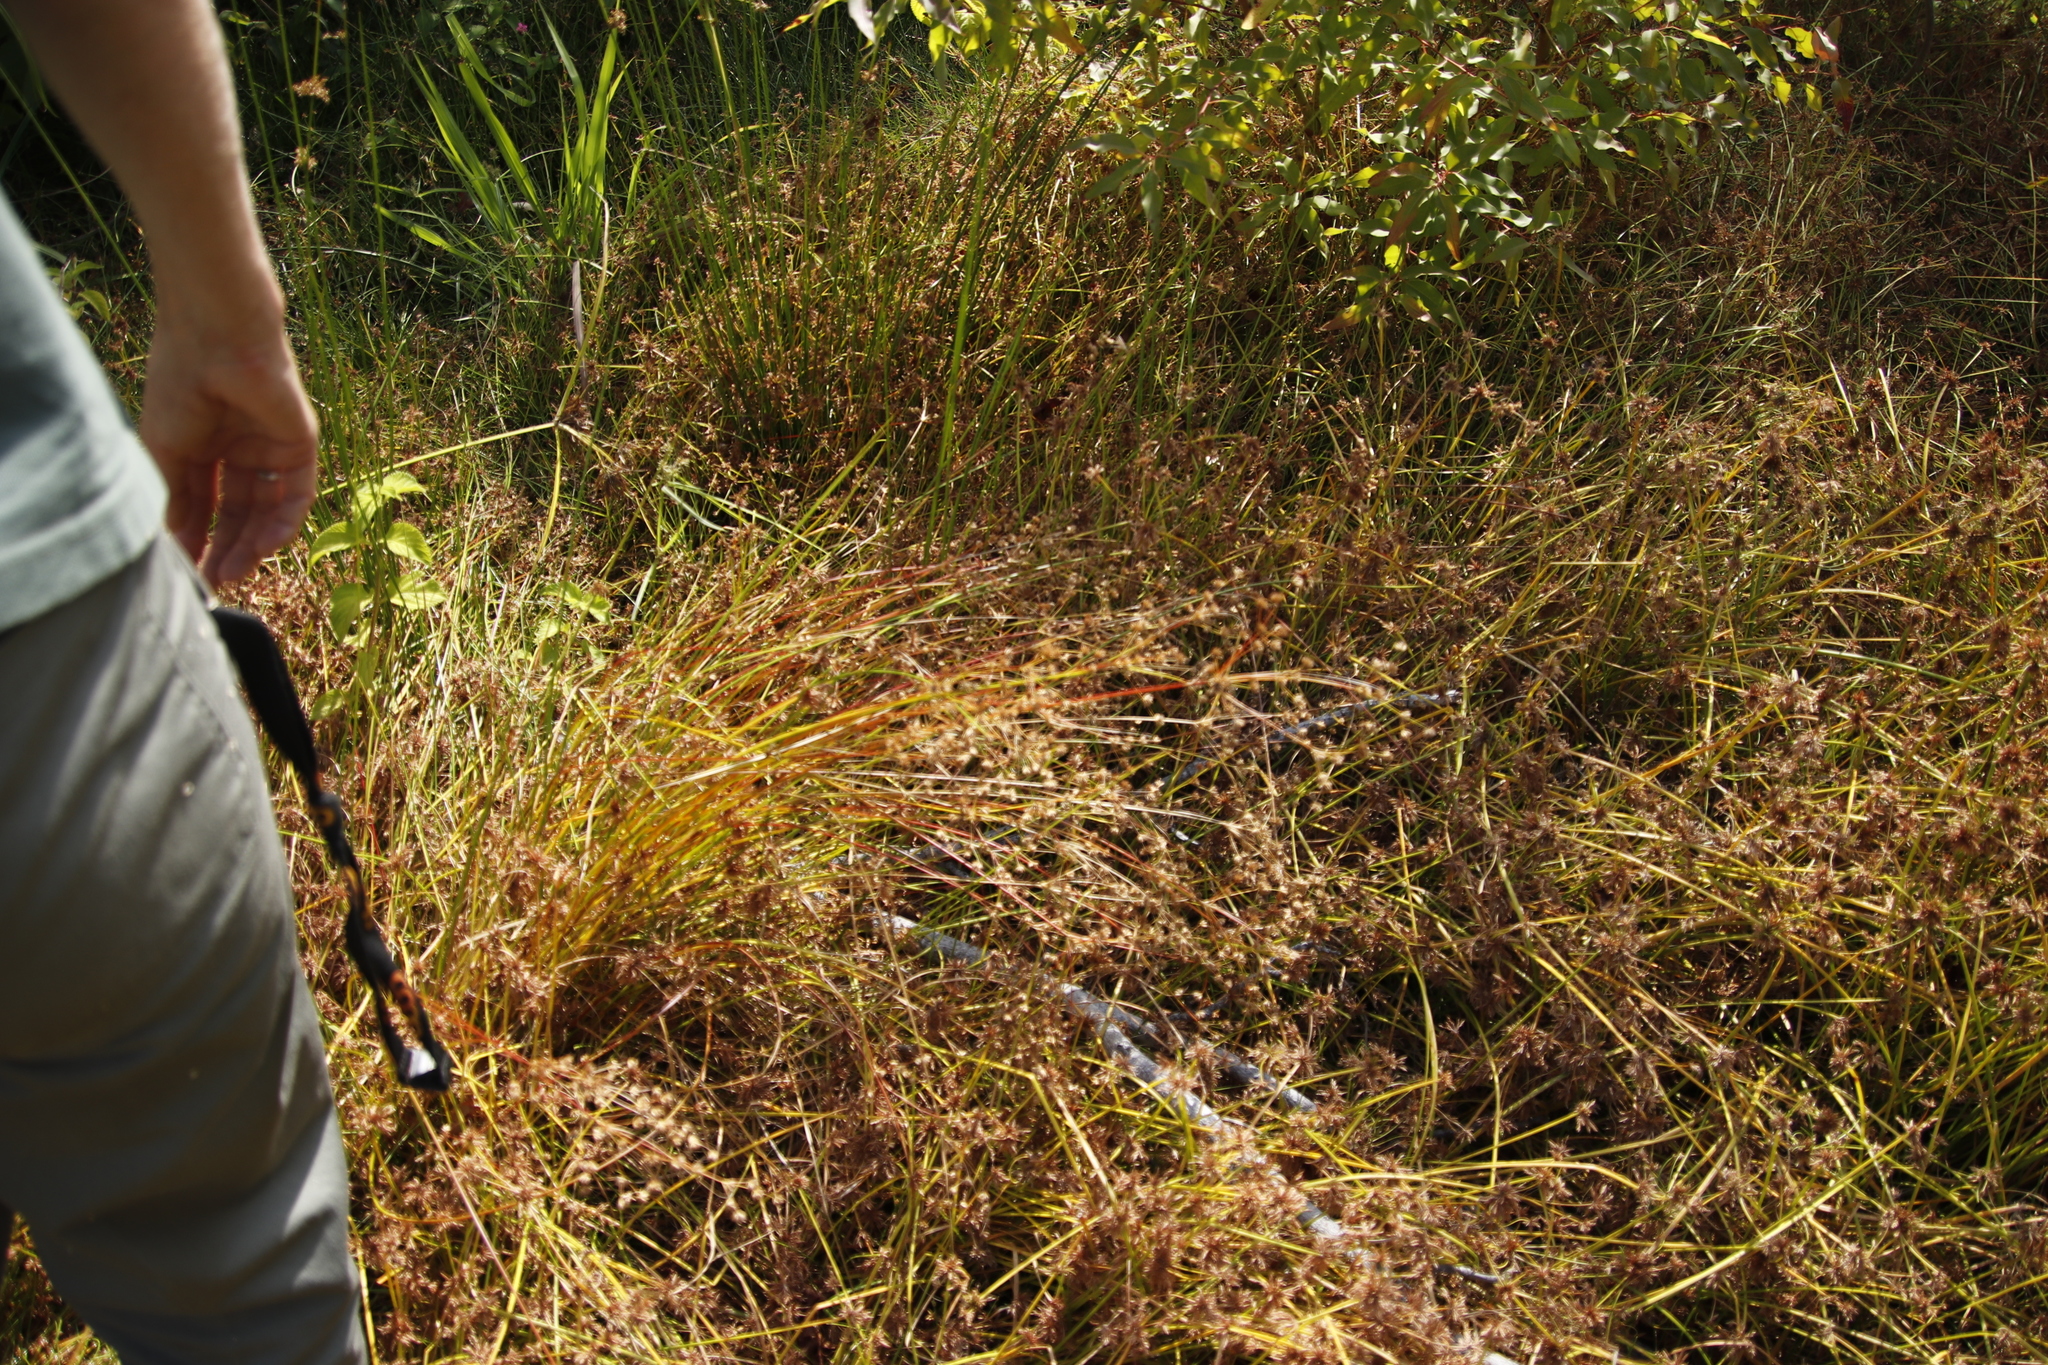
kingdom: Plantae
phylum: Tracheophyta
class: Liliopsida
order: Poales
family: Juncaceae
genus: Juncus
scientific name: Juncus capensis
